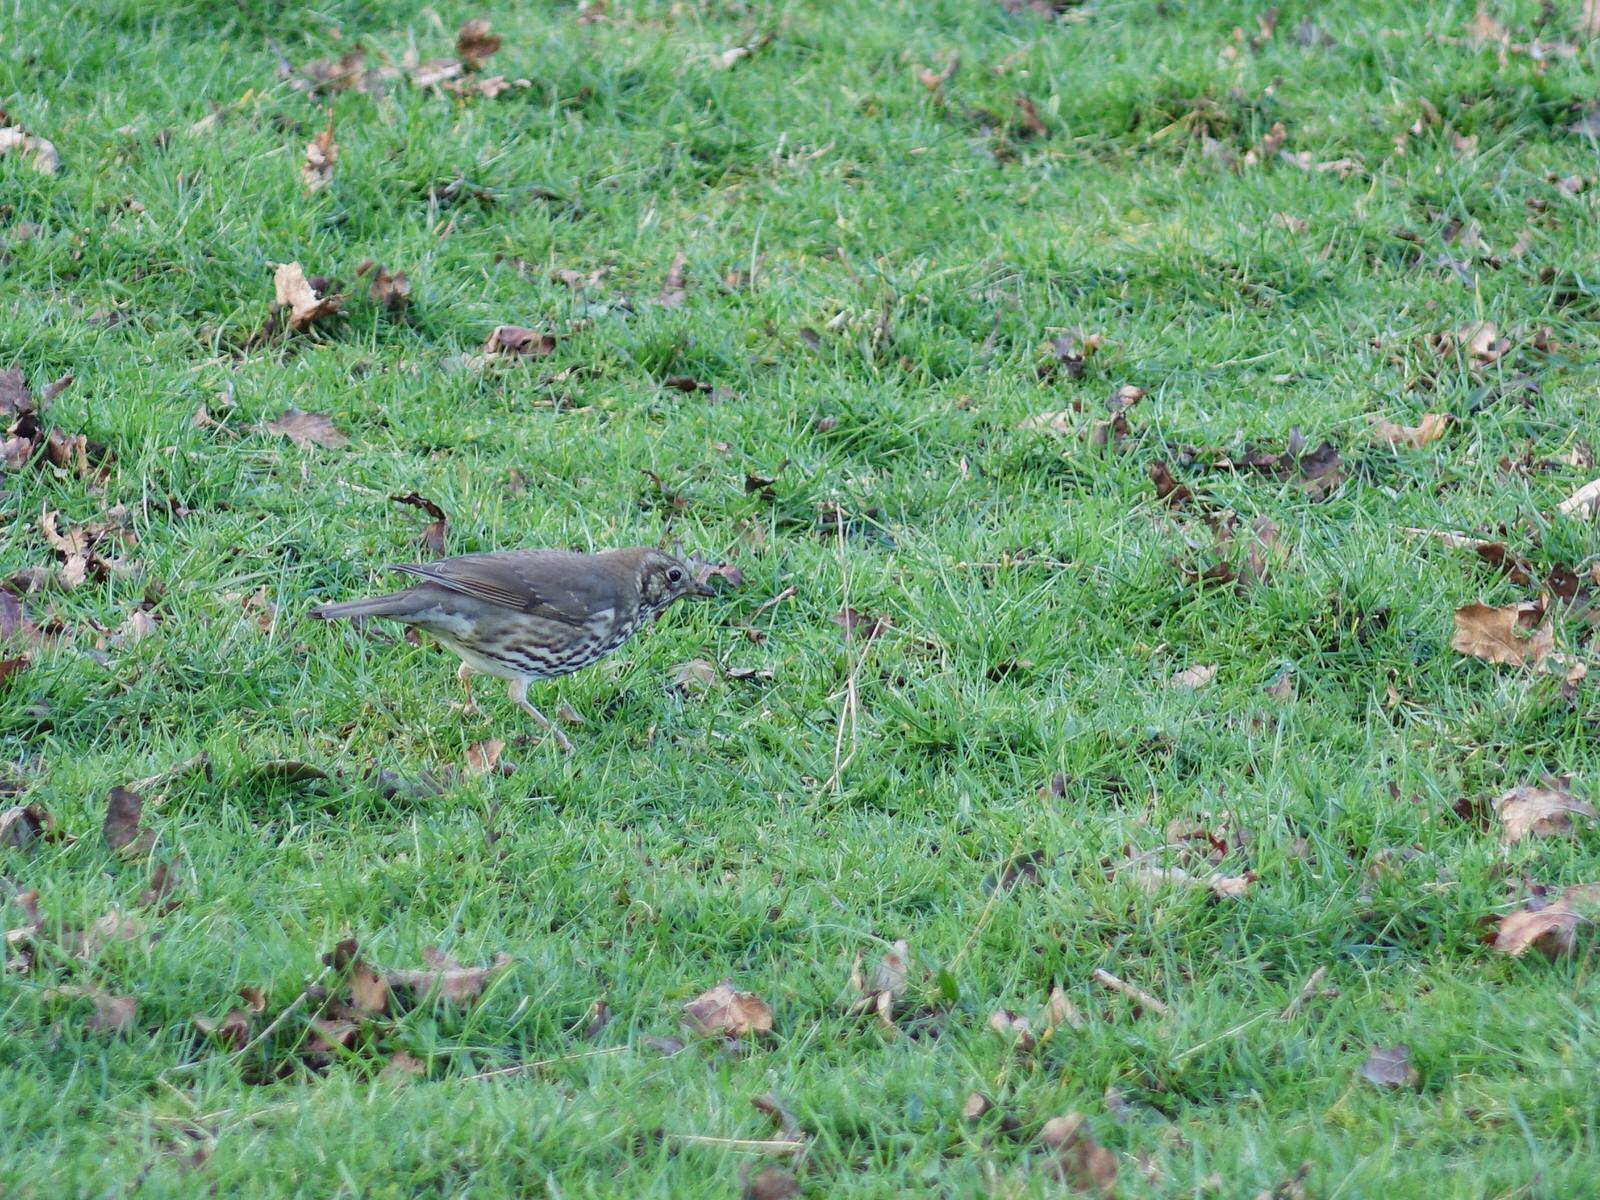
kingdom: Animalia
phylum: Chordata
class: Aves
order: Passeriformes
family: Turdidae
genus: Turdus
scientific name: Turdus philomelos
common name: Song thrush
